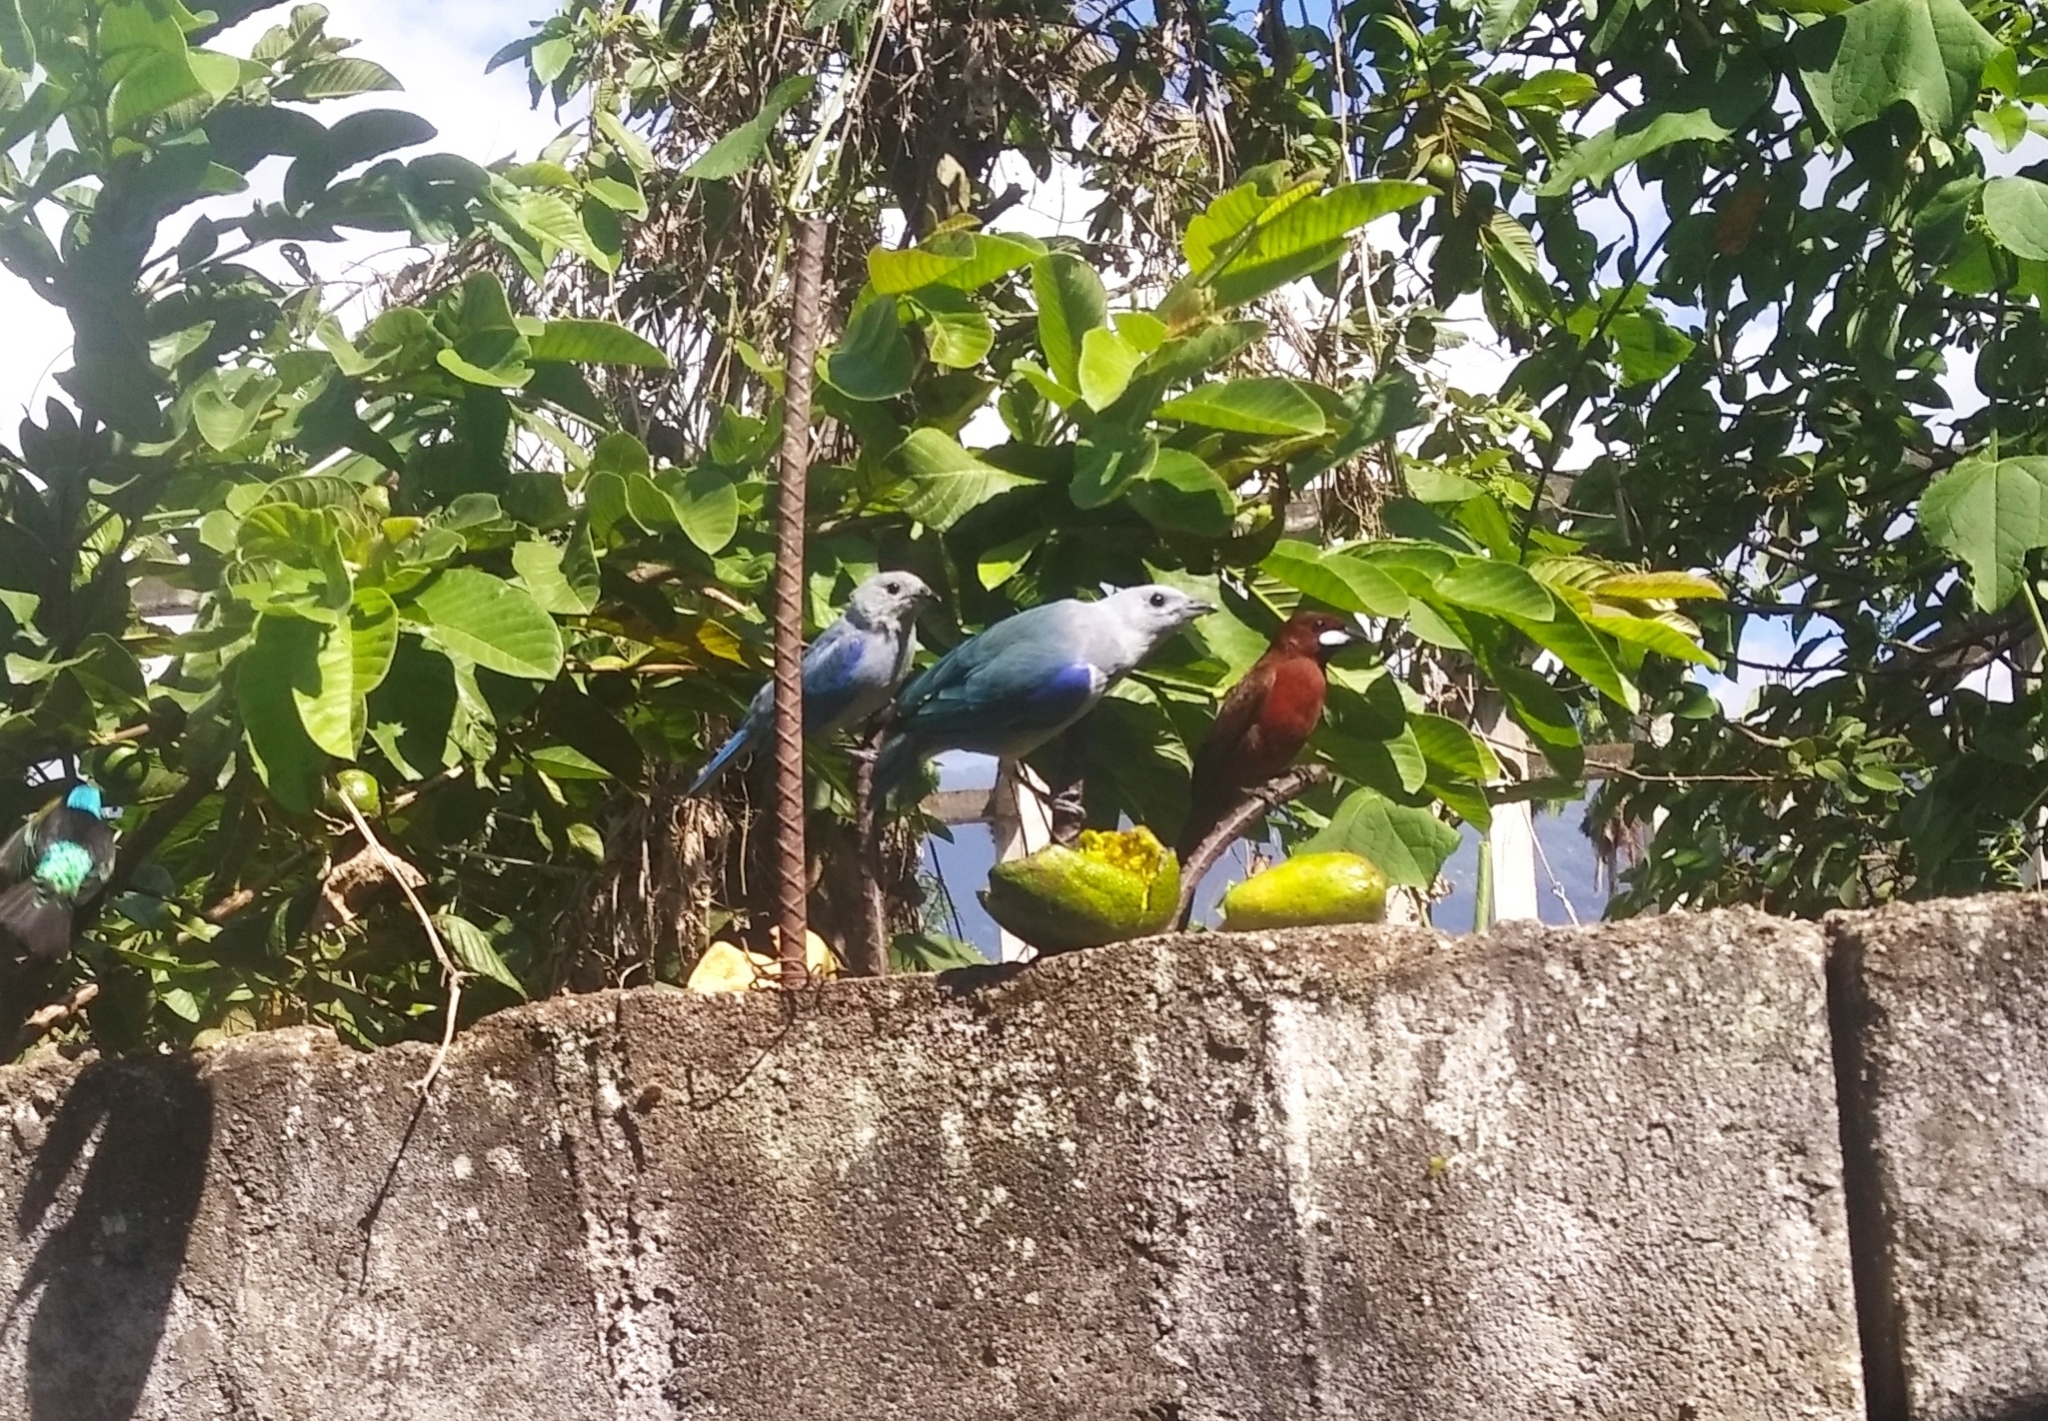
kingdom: Animalia
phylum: Chordata
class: Aves
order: Passeriformes
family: Thraupidae
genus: Thraupis
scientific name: Thraupis episcopus
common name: Blue-grey tanager
